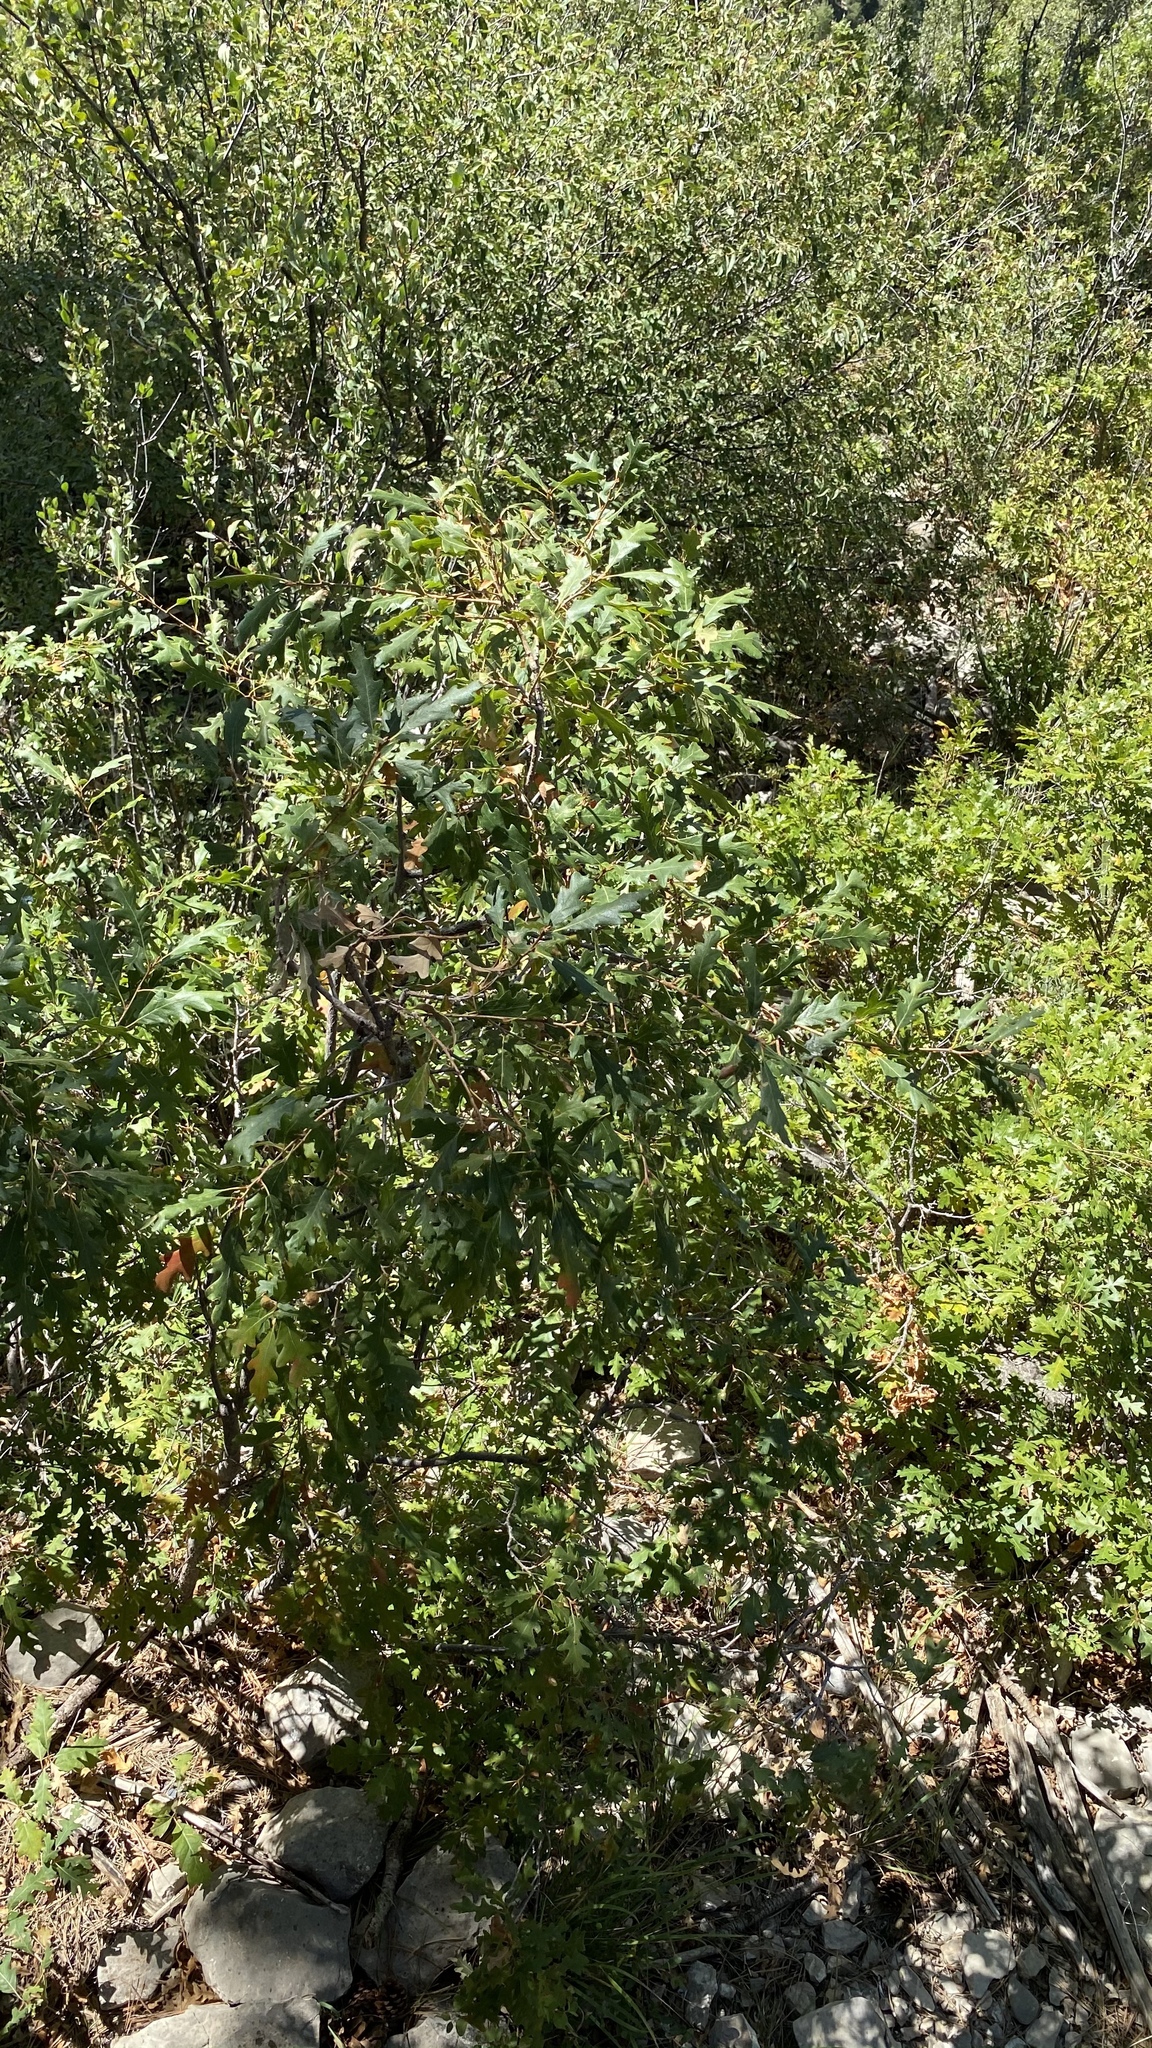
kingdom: Plantae
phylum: Tracheophyta
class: Magnoliopsida
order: Fagales
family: Fagaceae
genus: Quercus
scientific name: Quercus gambelii
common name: Gambel oak
